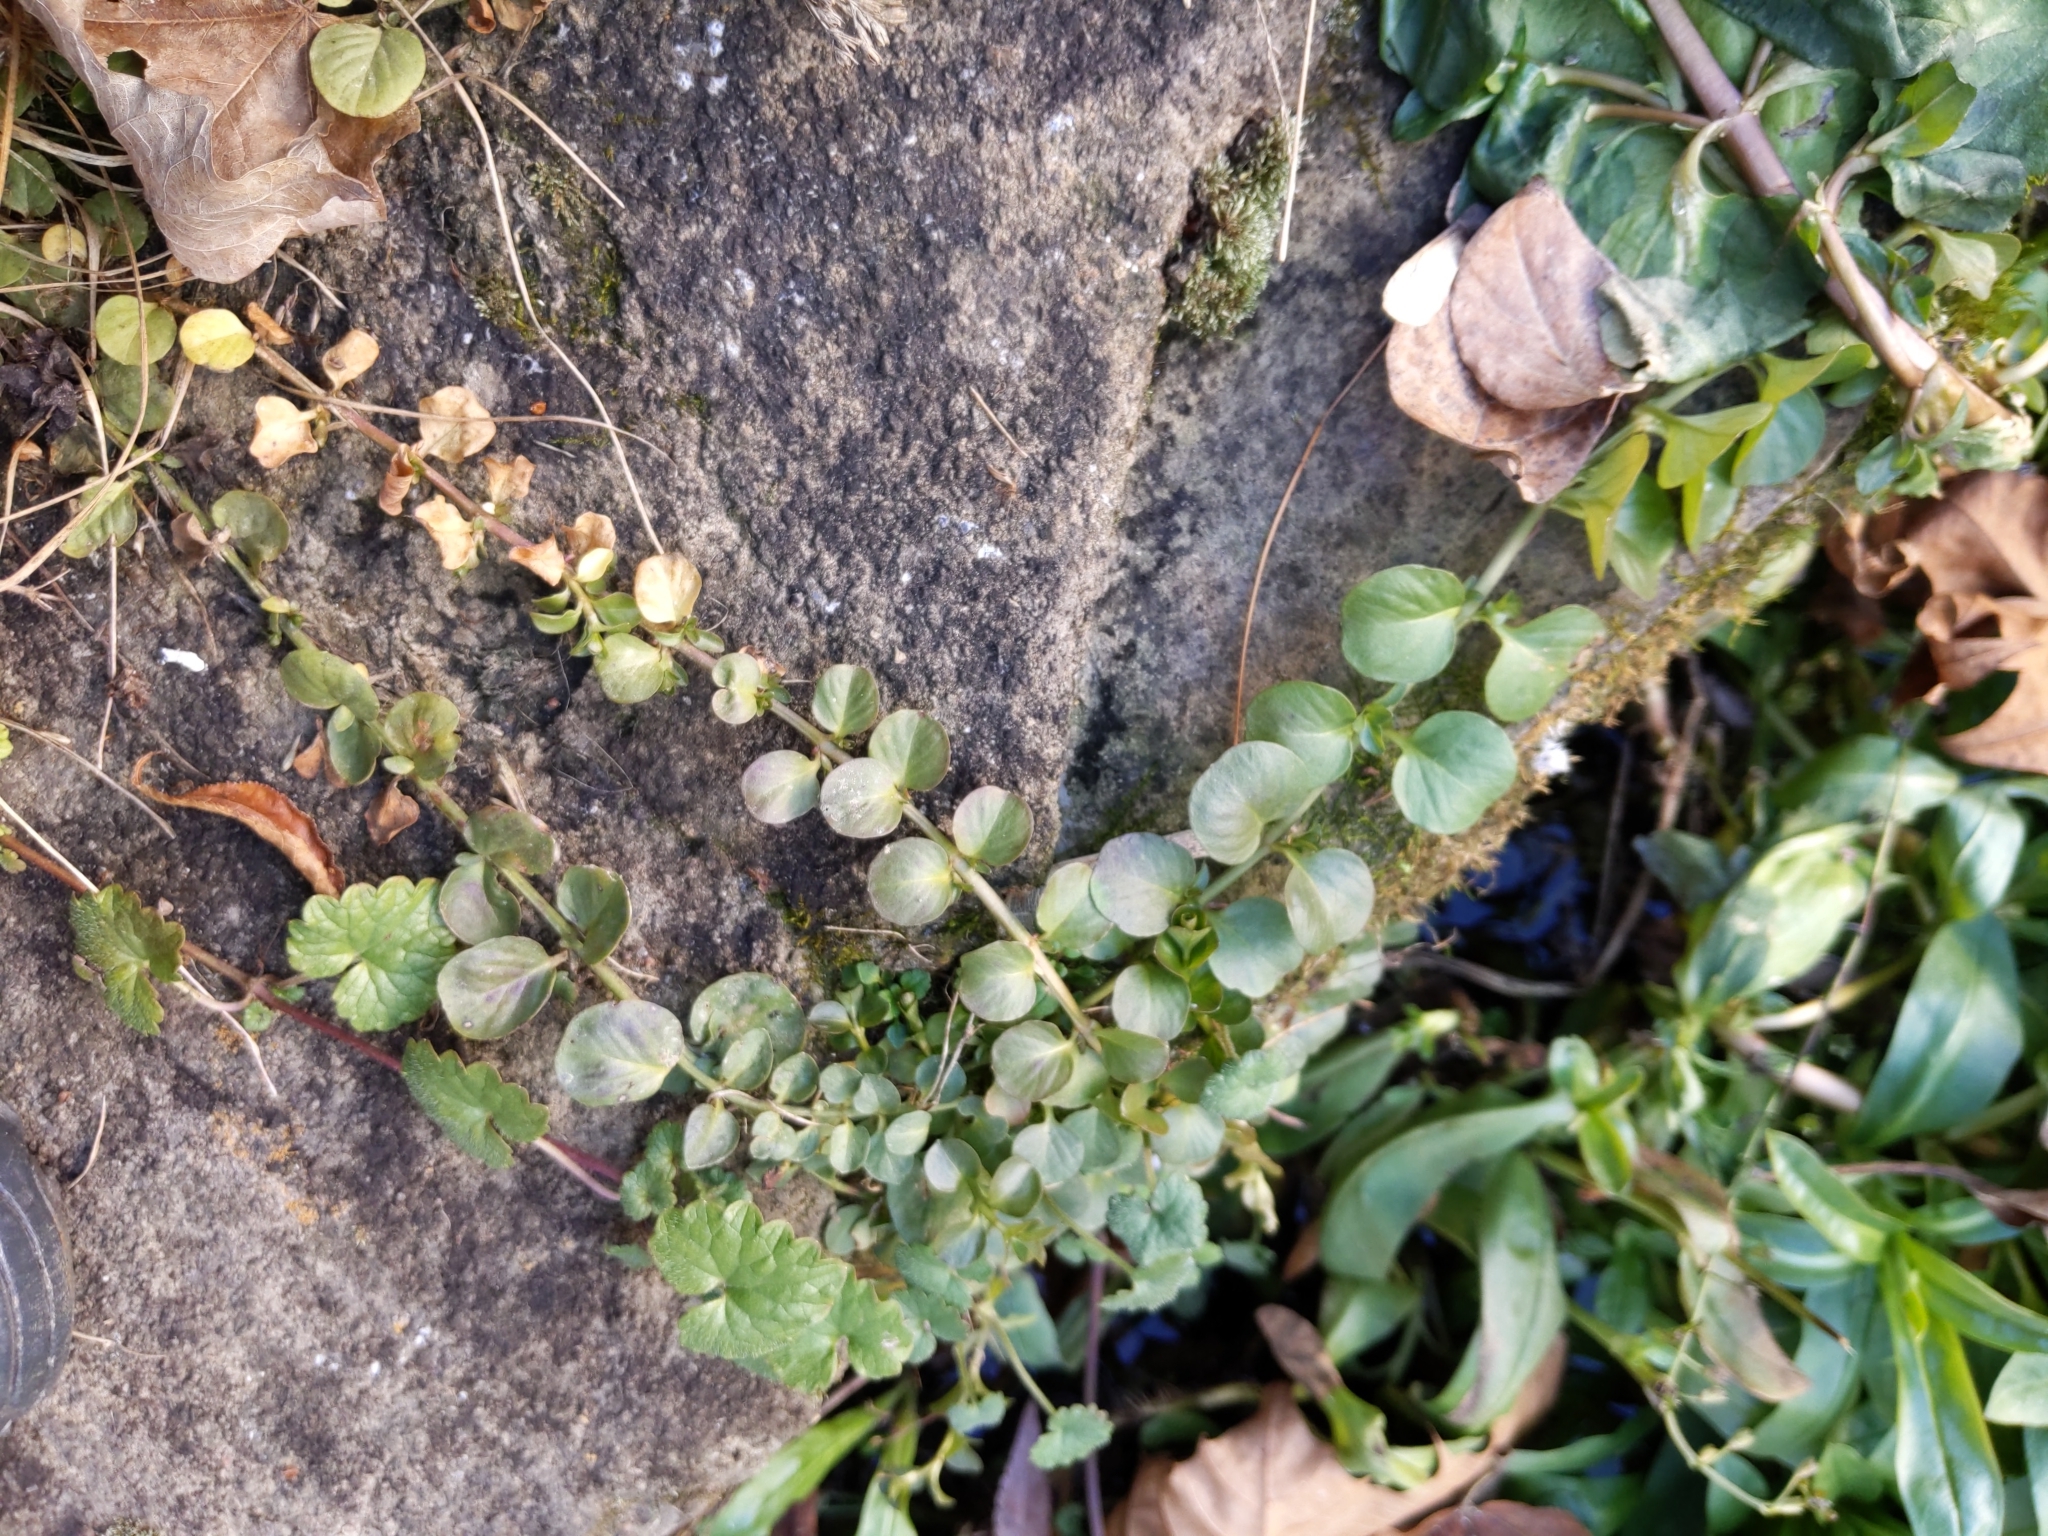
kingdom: Plantae
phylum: Tracheophyta
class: Magnoliopsida
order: Ericales
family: Primulaceae
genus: Lysimachia
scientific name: Lysimachia nummularia
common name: Moneywort
